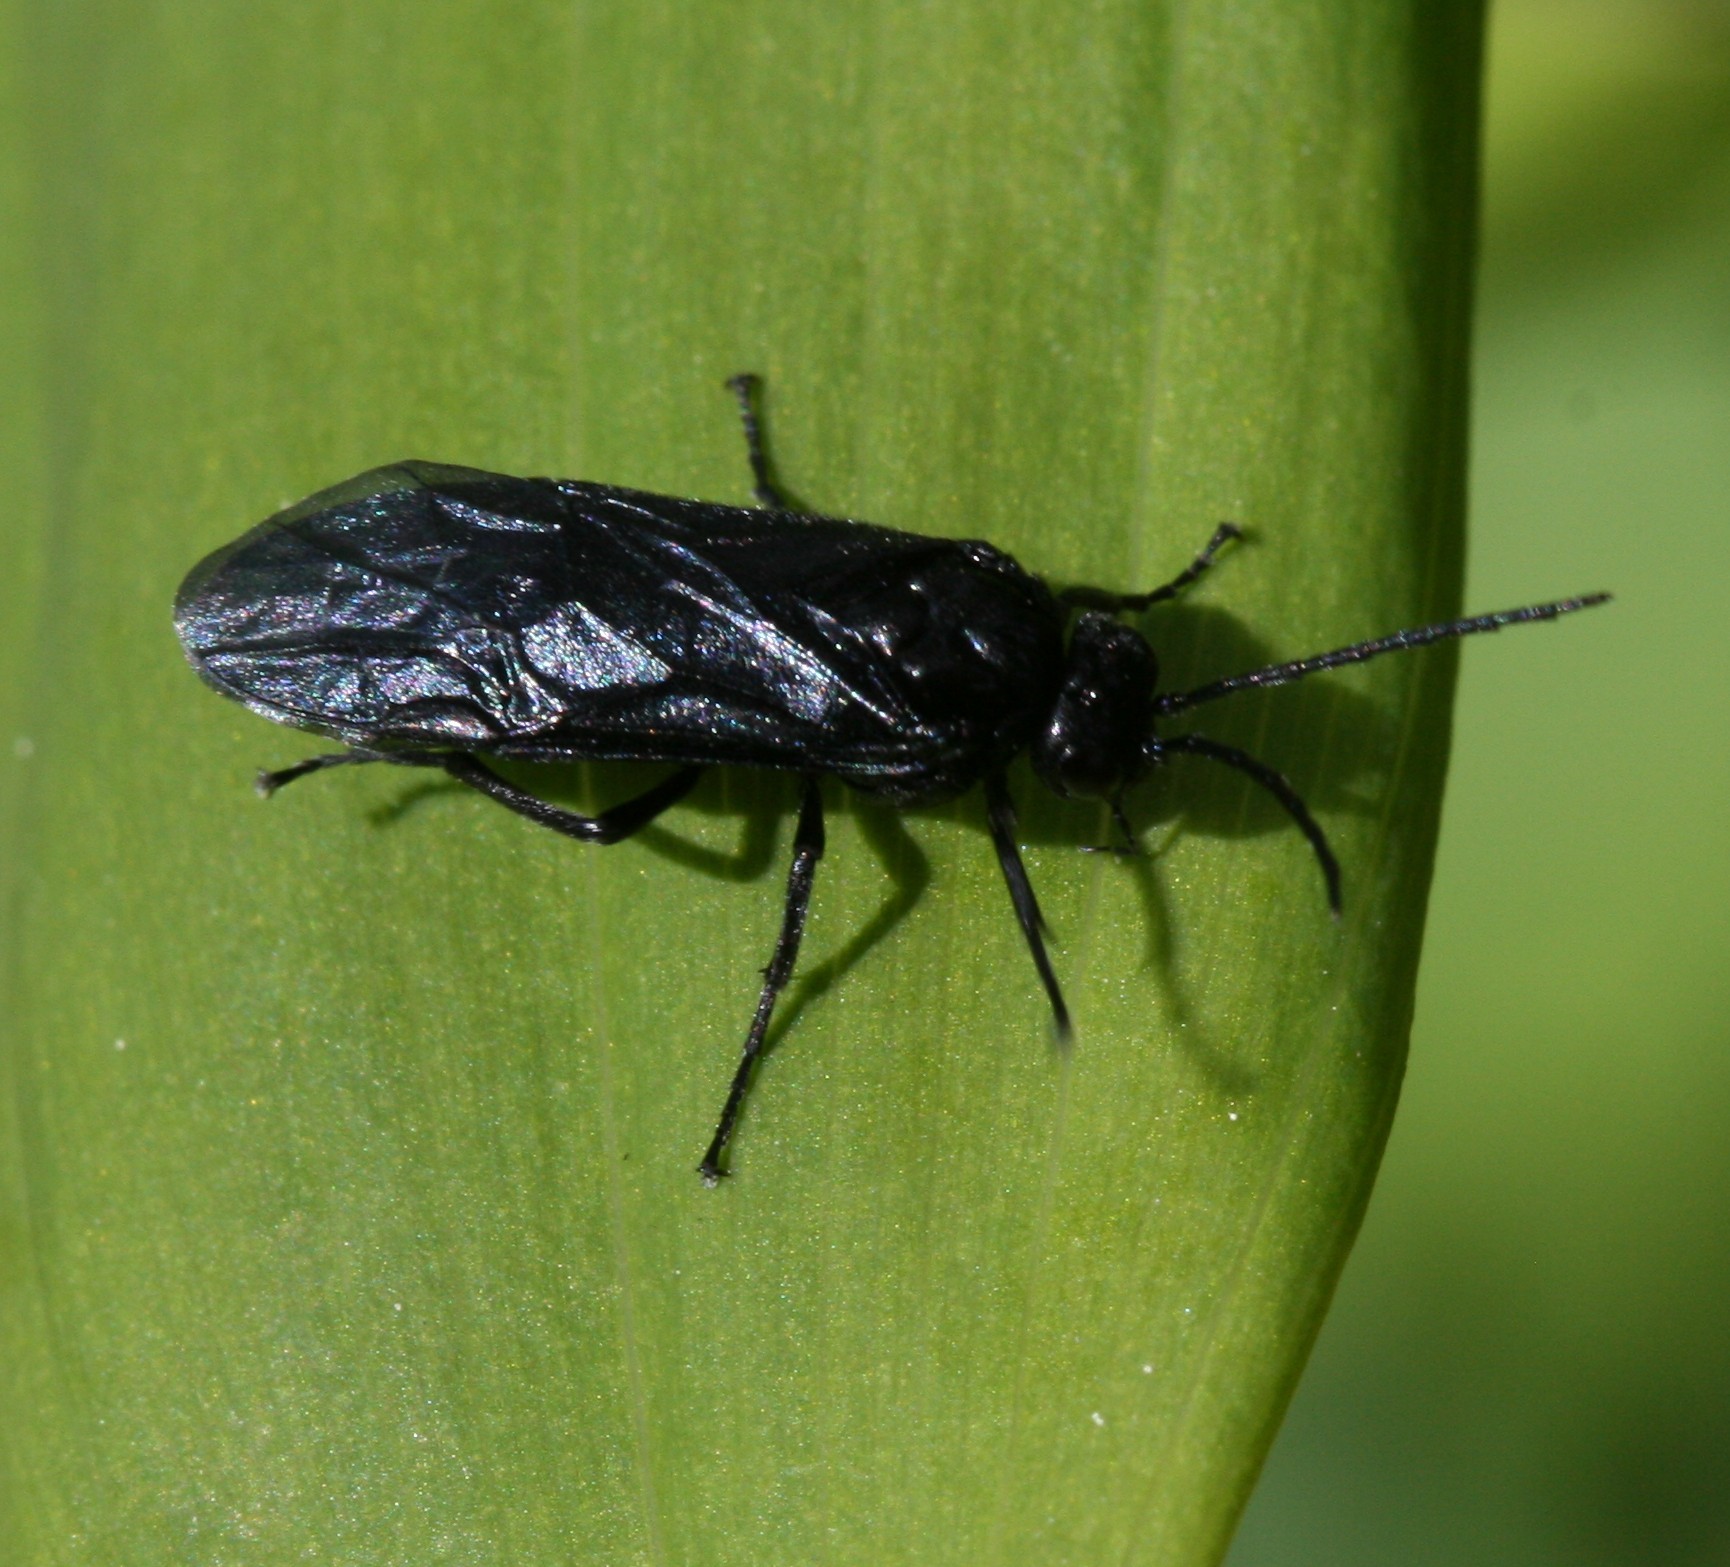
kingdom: Animalia
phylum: Arthropoda
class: Insecta
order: Hymenoptera
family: Tenthredinidae
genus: Phymatocera
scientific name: Phymatocera aterrima
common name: Solomon's-seal sawfly
